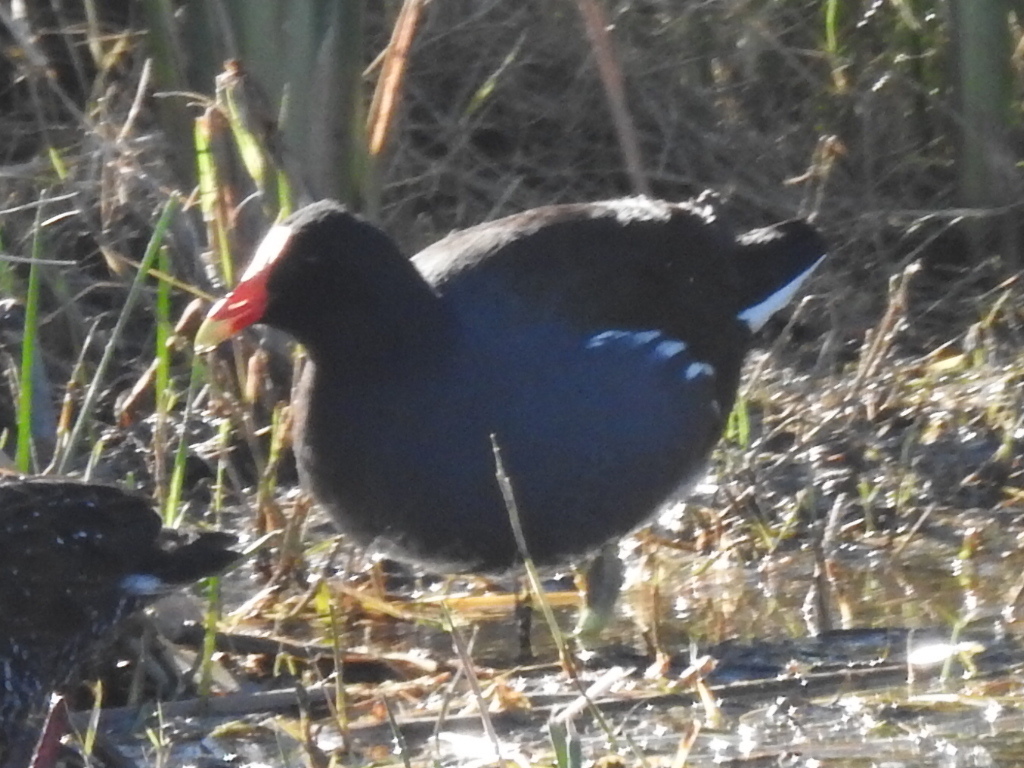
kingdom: Animalia
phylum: Chordata
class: Aves
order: Gruiformes
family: Rallidae
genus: Gallinula
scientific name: Gallinula chloropus
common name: Common moorhen
